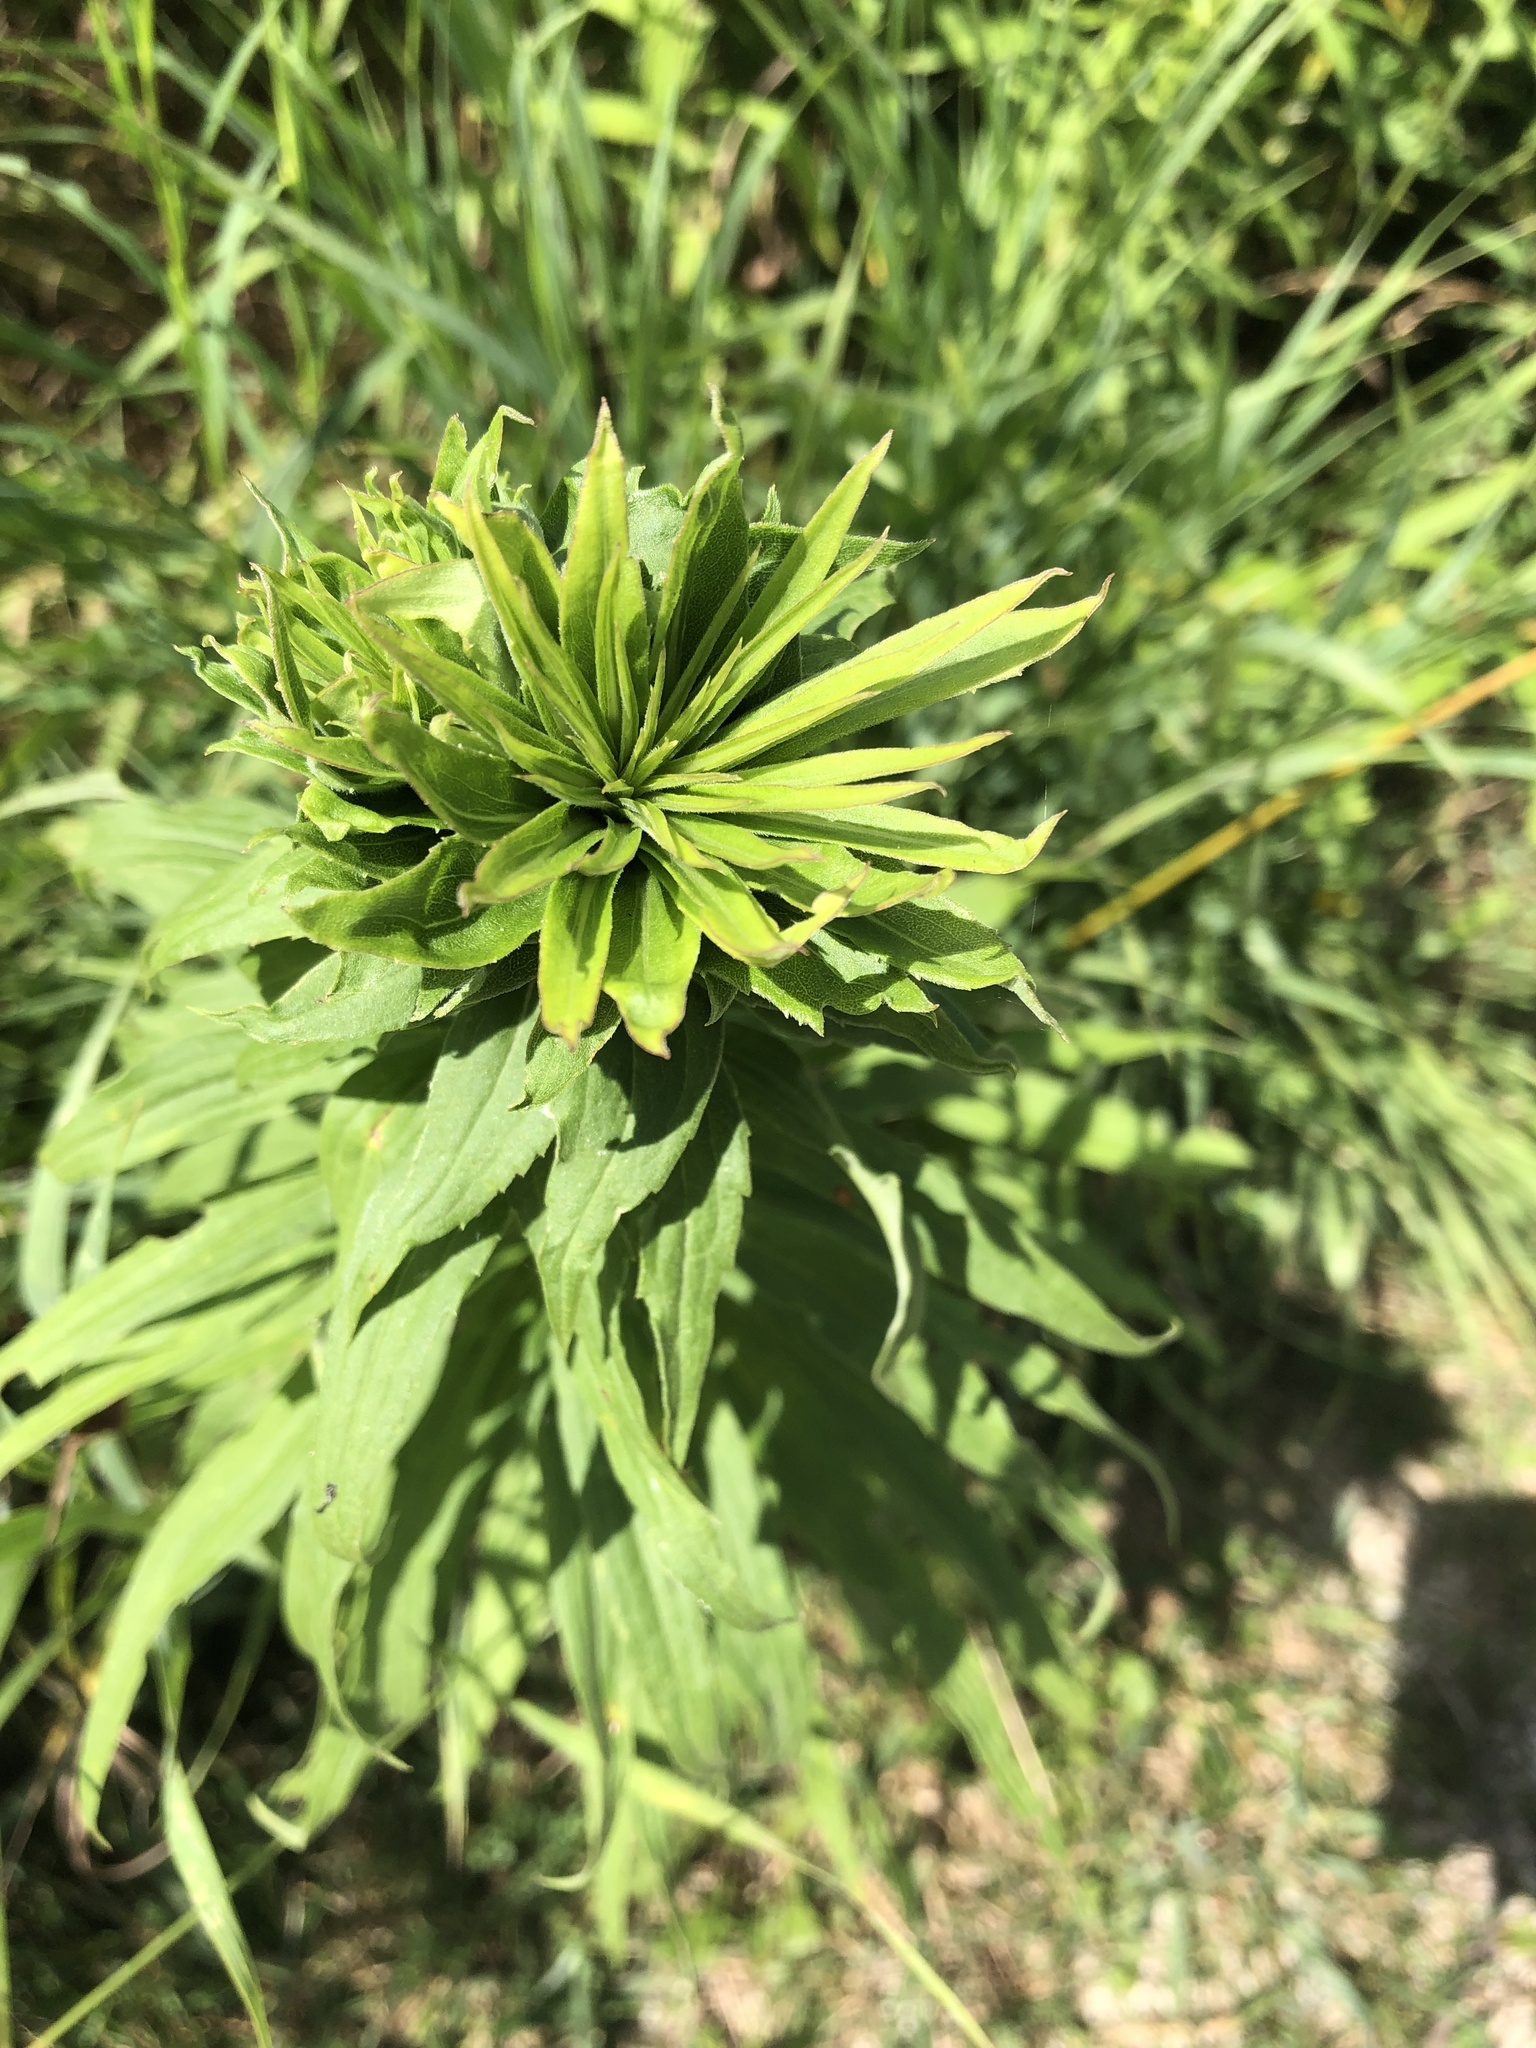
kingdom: Animalia
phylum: Arthropoda
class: Insecta
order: Diptera
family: Cecidomyiidae
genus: Rhopalomyia
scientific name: Rhopalomyia solidaginis
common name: Goldenrod bunch gall midge
